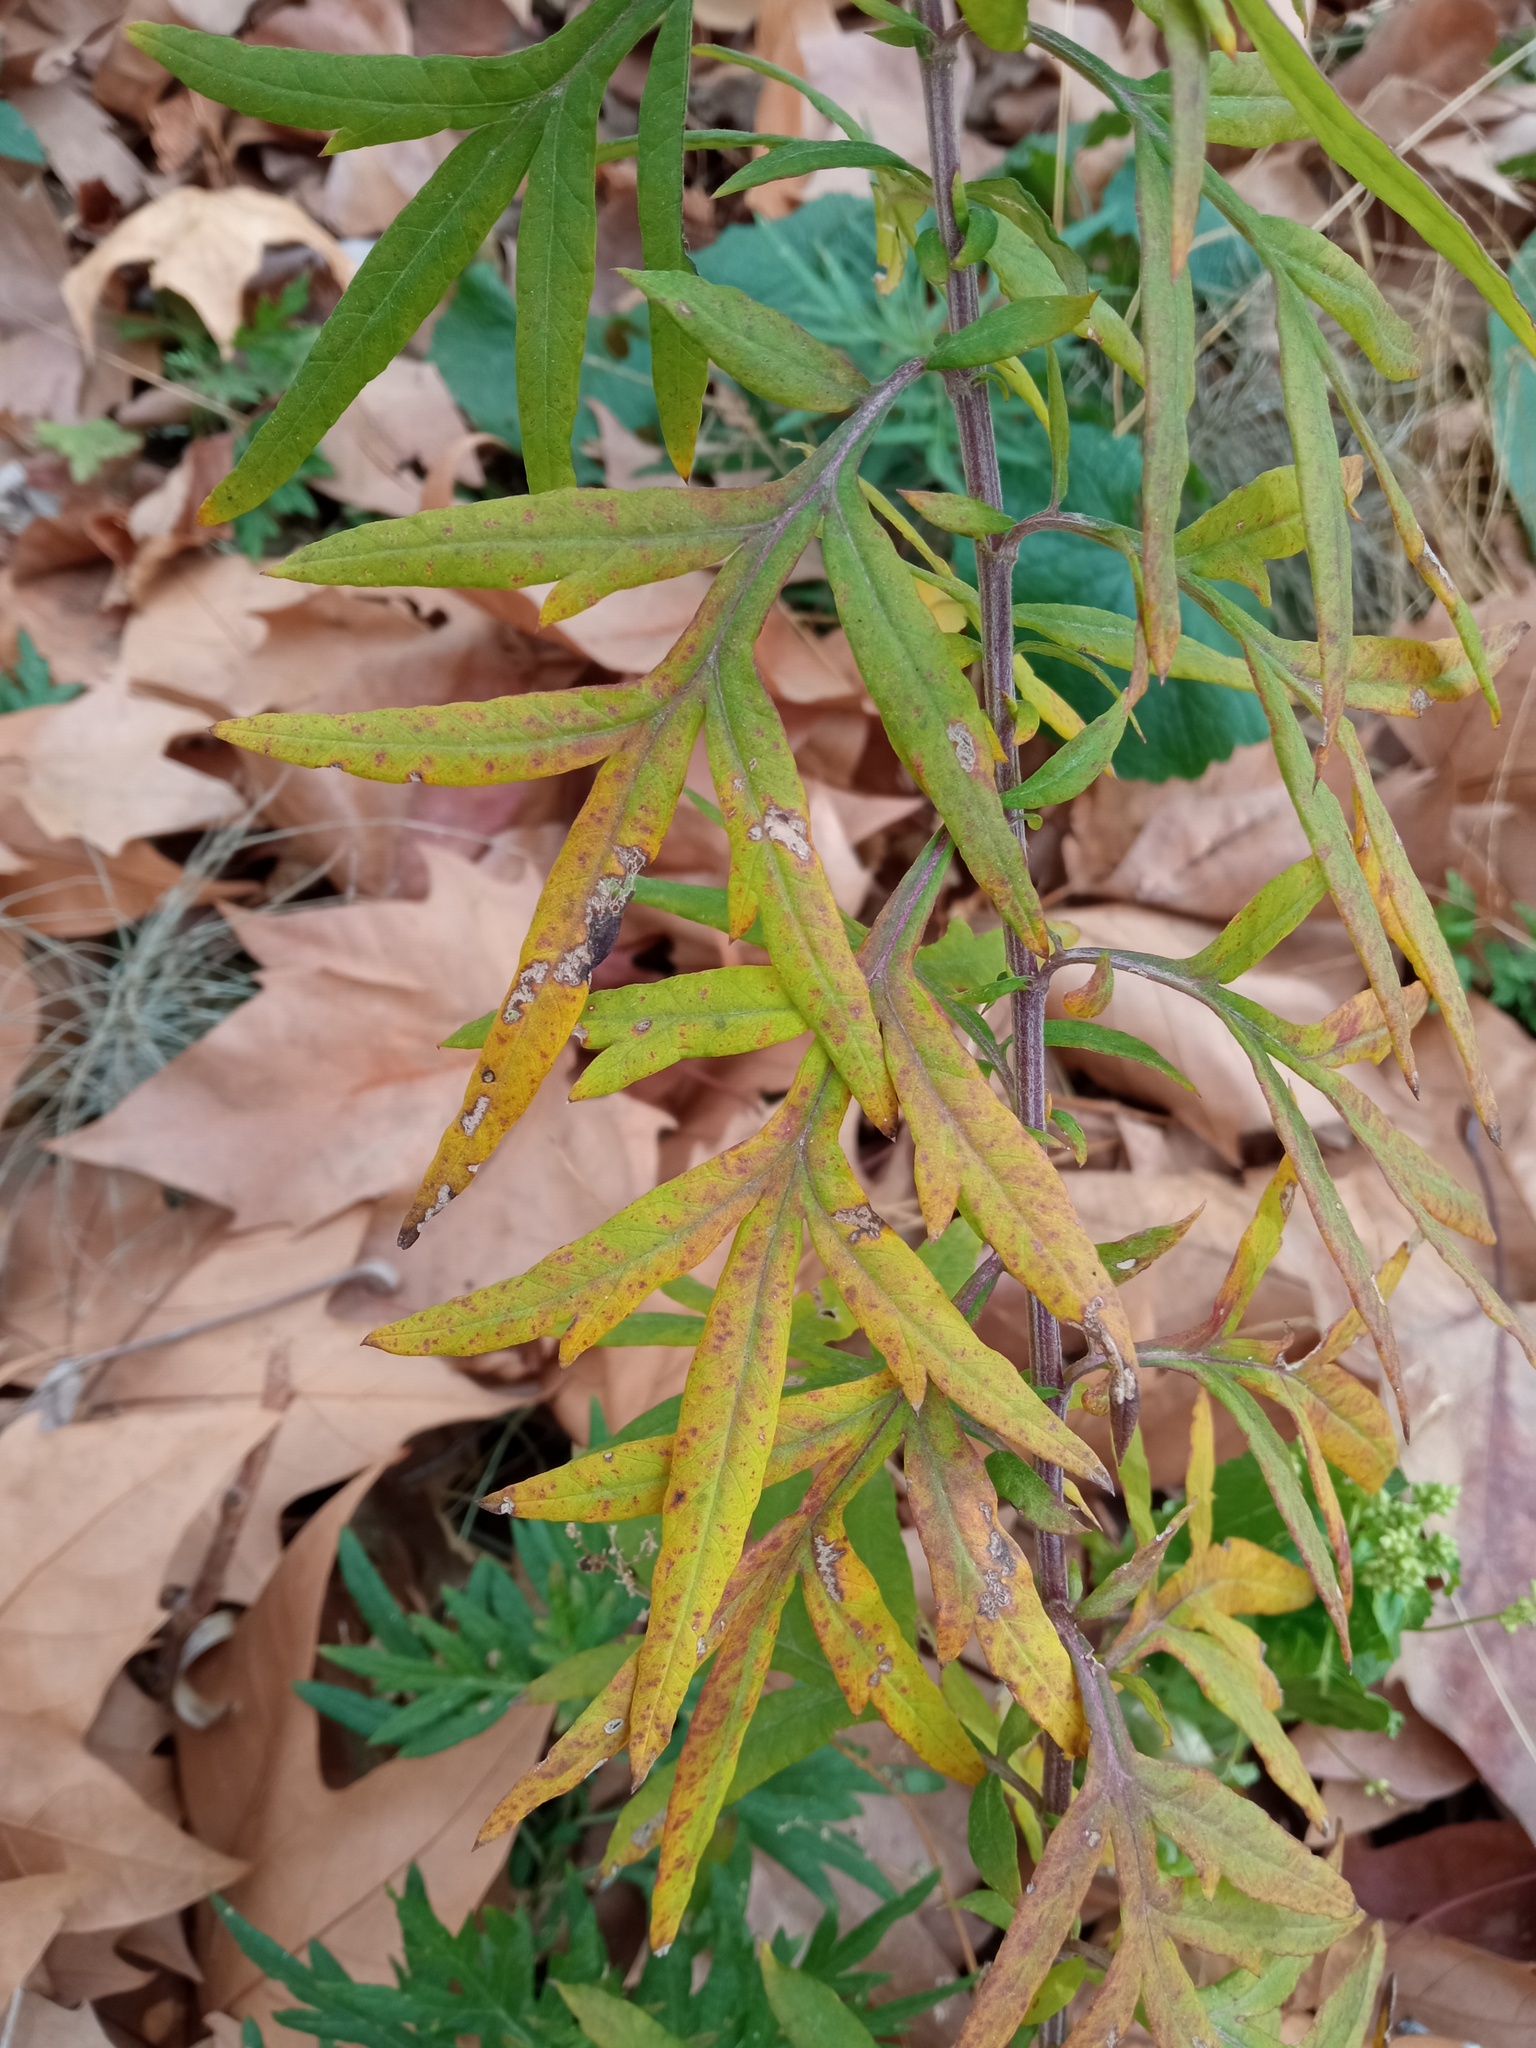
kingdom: Plantae
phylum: Tracheophyta
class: Magnoliopsida
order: Asterales
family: Asteraceae
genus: Artemisia
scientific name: Artemisia verlotiorum
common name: Chinese mugwort
